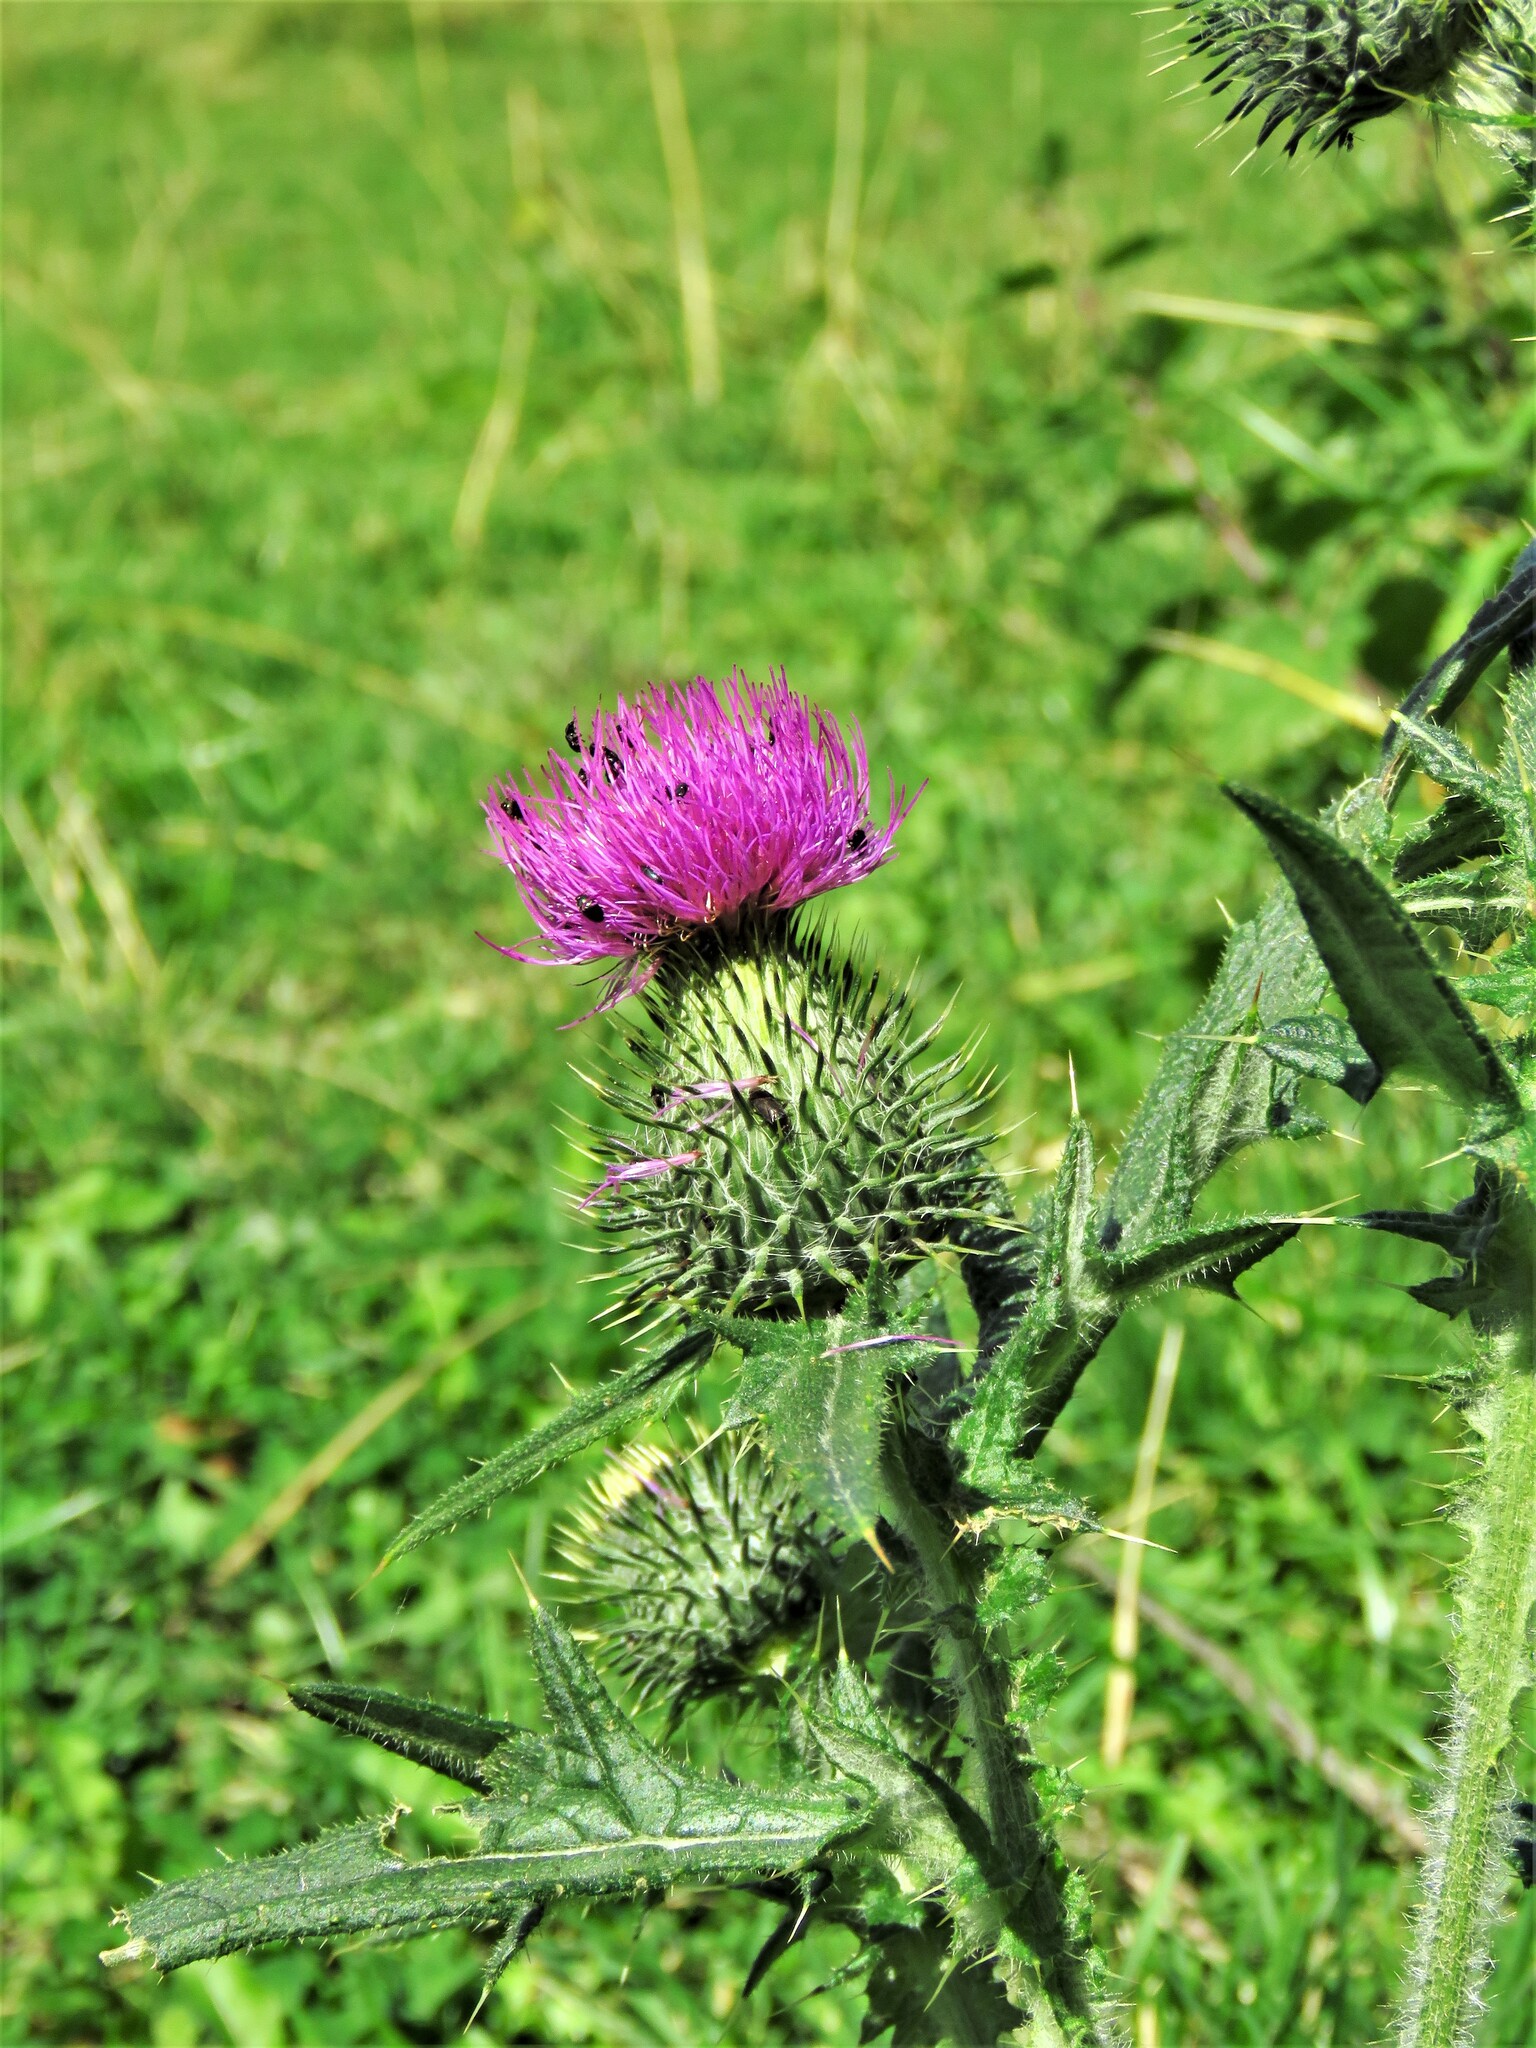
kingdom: Plantae
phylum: Tracheophyta
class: Magnoliopsida
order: Asterales
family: Asteraceae
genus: Cirsium
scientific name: Cirsium vulgare
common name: Bull thistle
